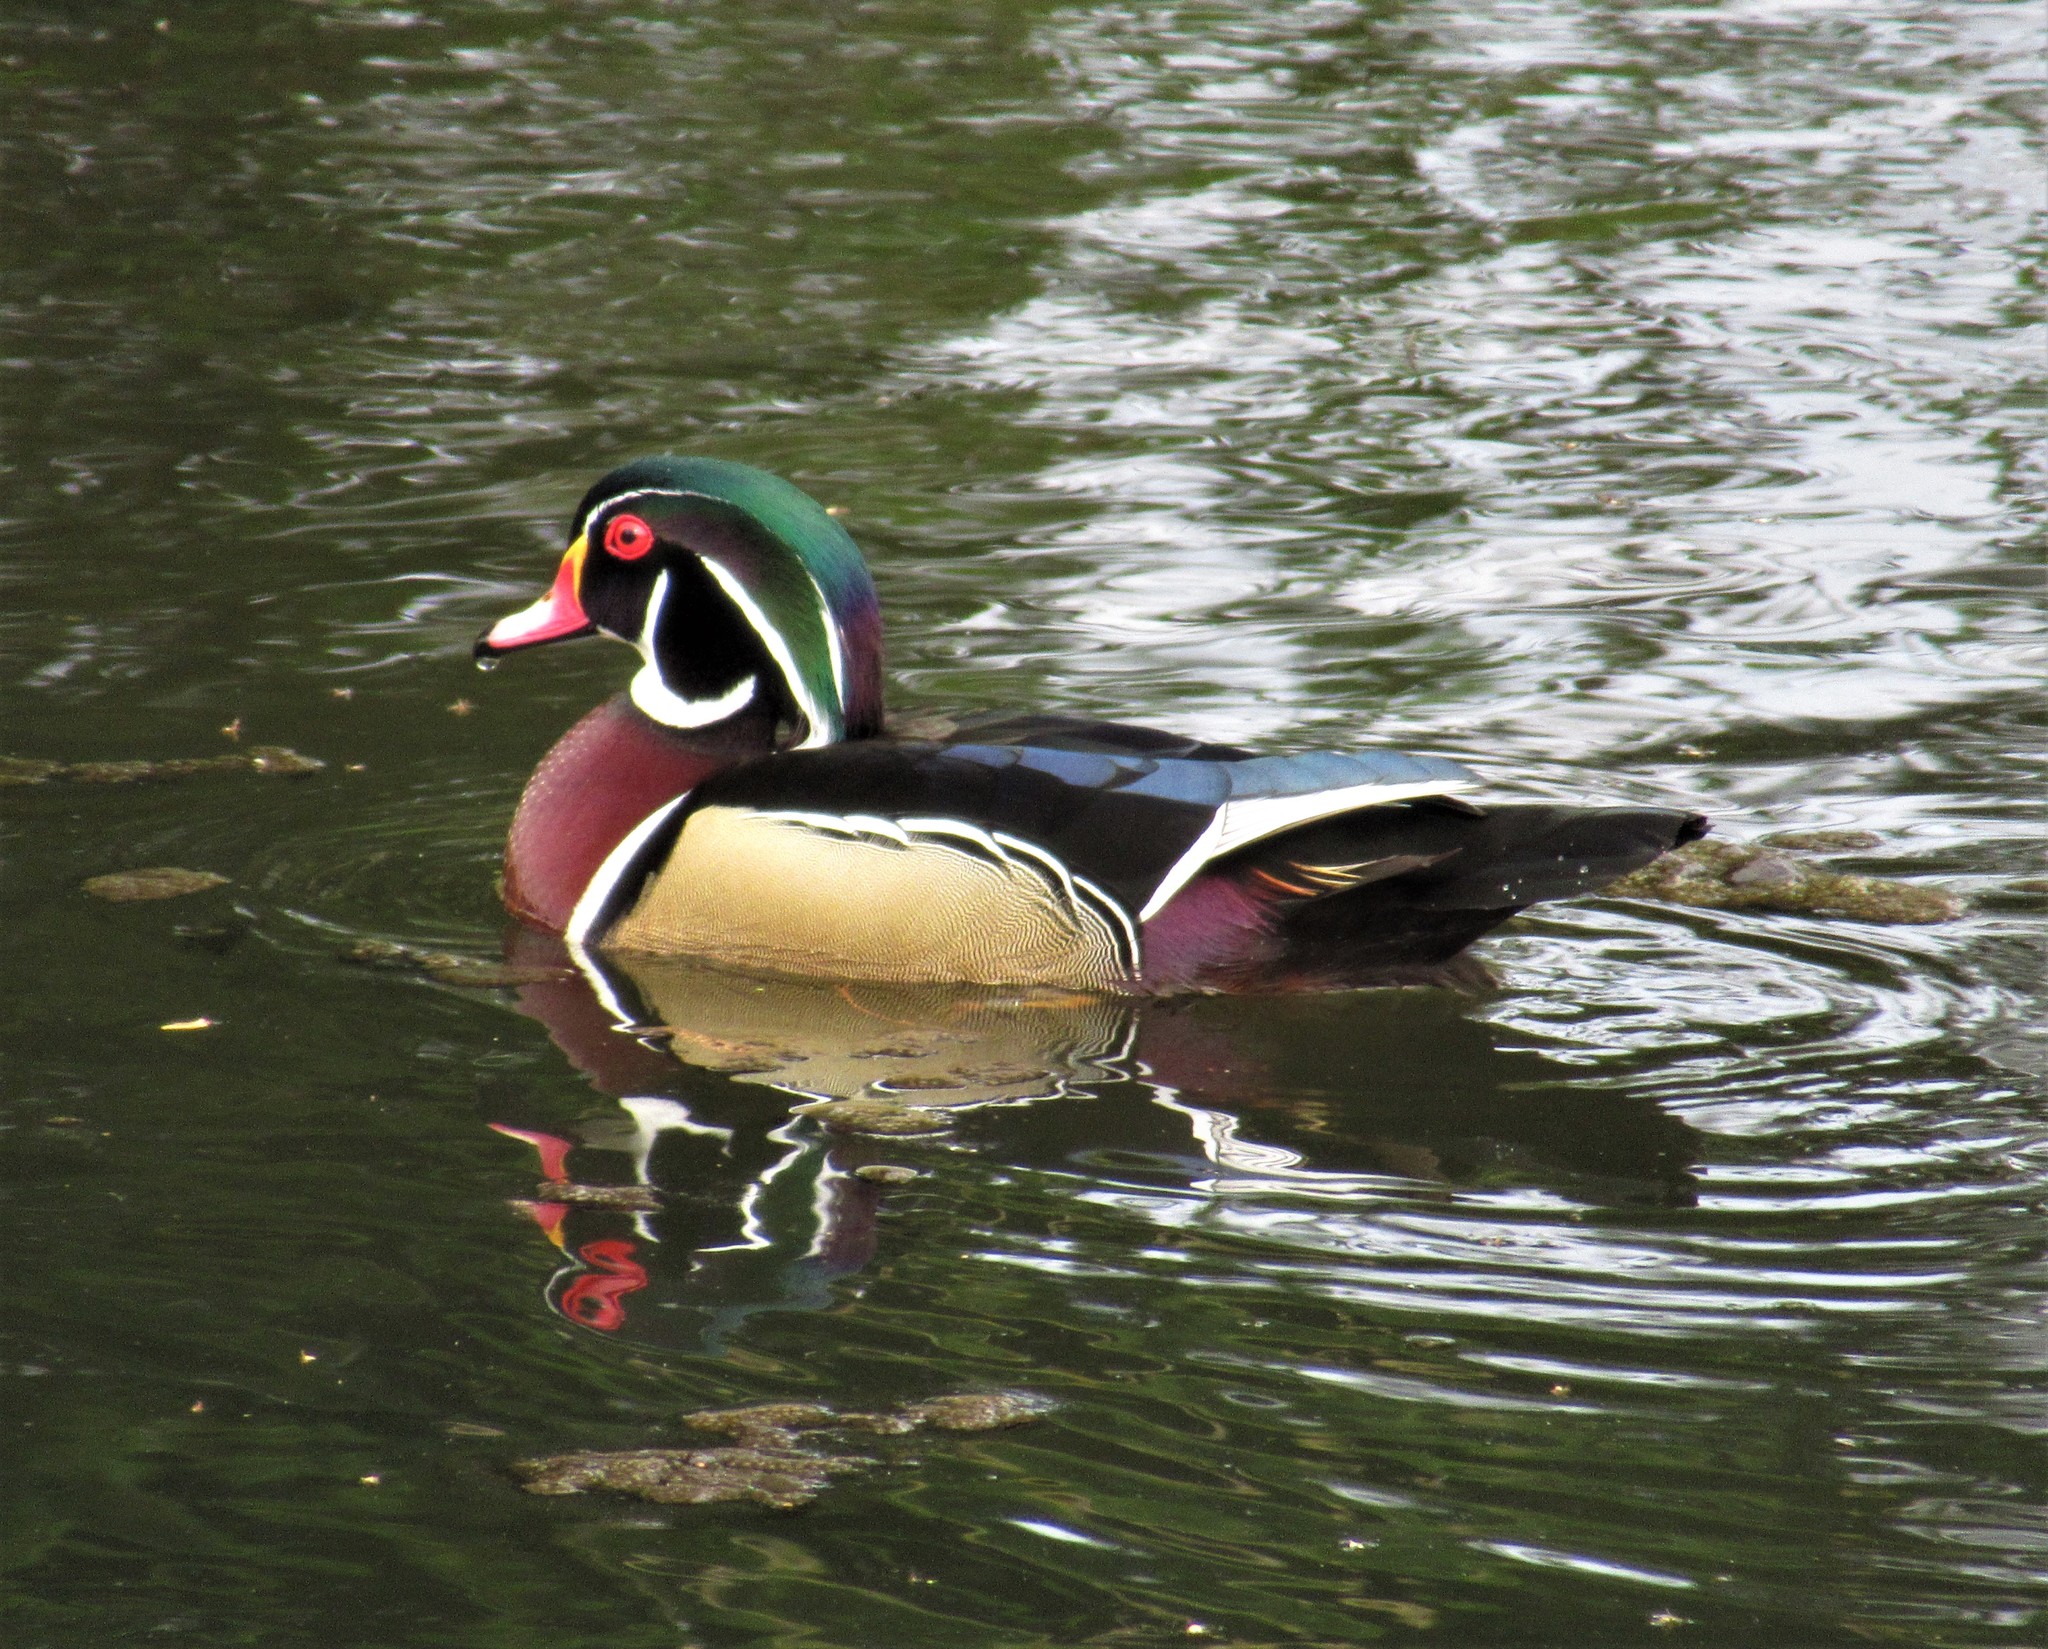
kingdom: Animalia
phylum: Chordata
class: Aves
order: Anseriformes
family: Anatidae
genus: Aix
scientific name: Aix sponsa
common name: Wood duck
